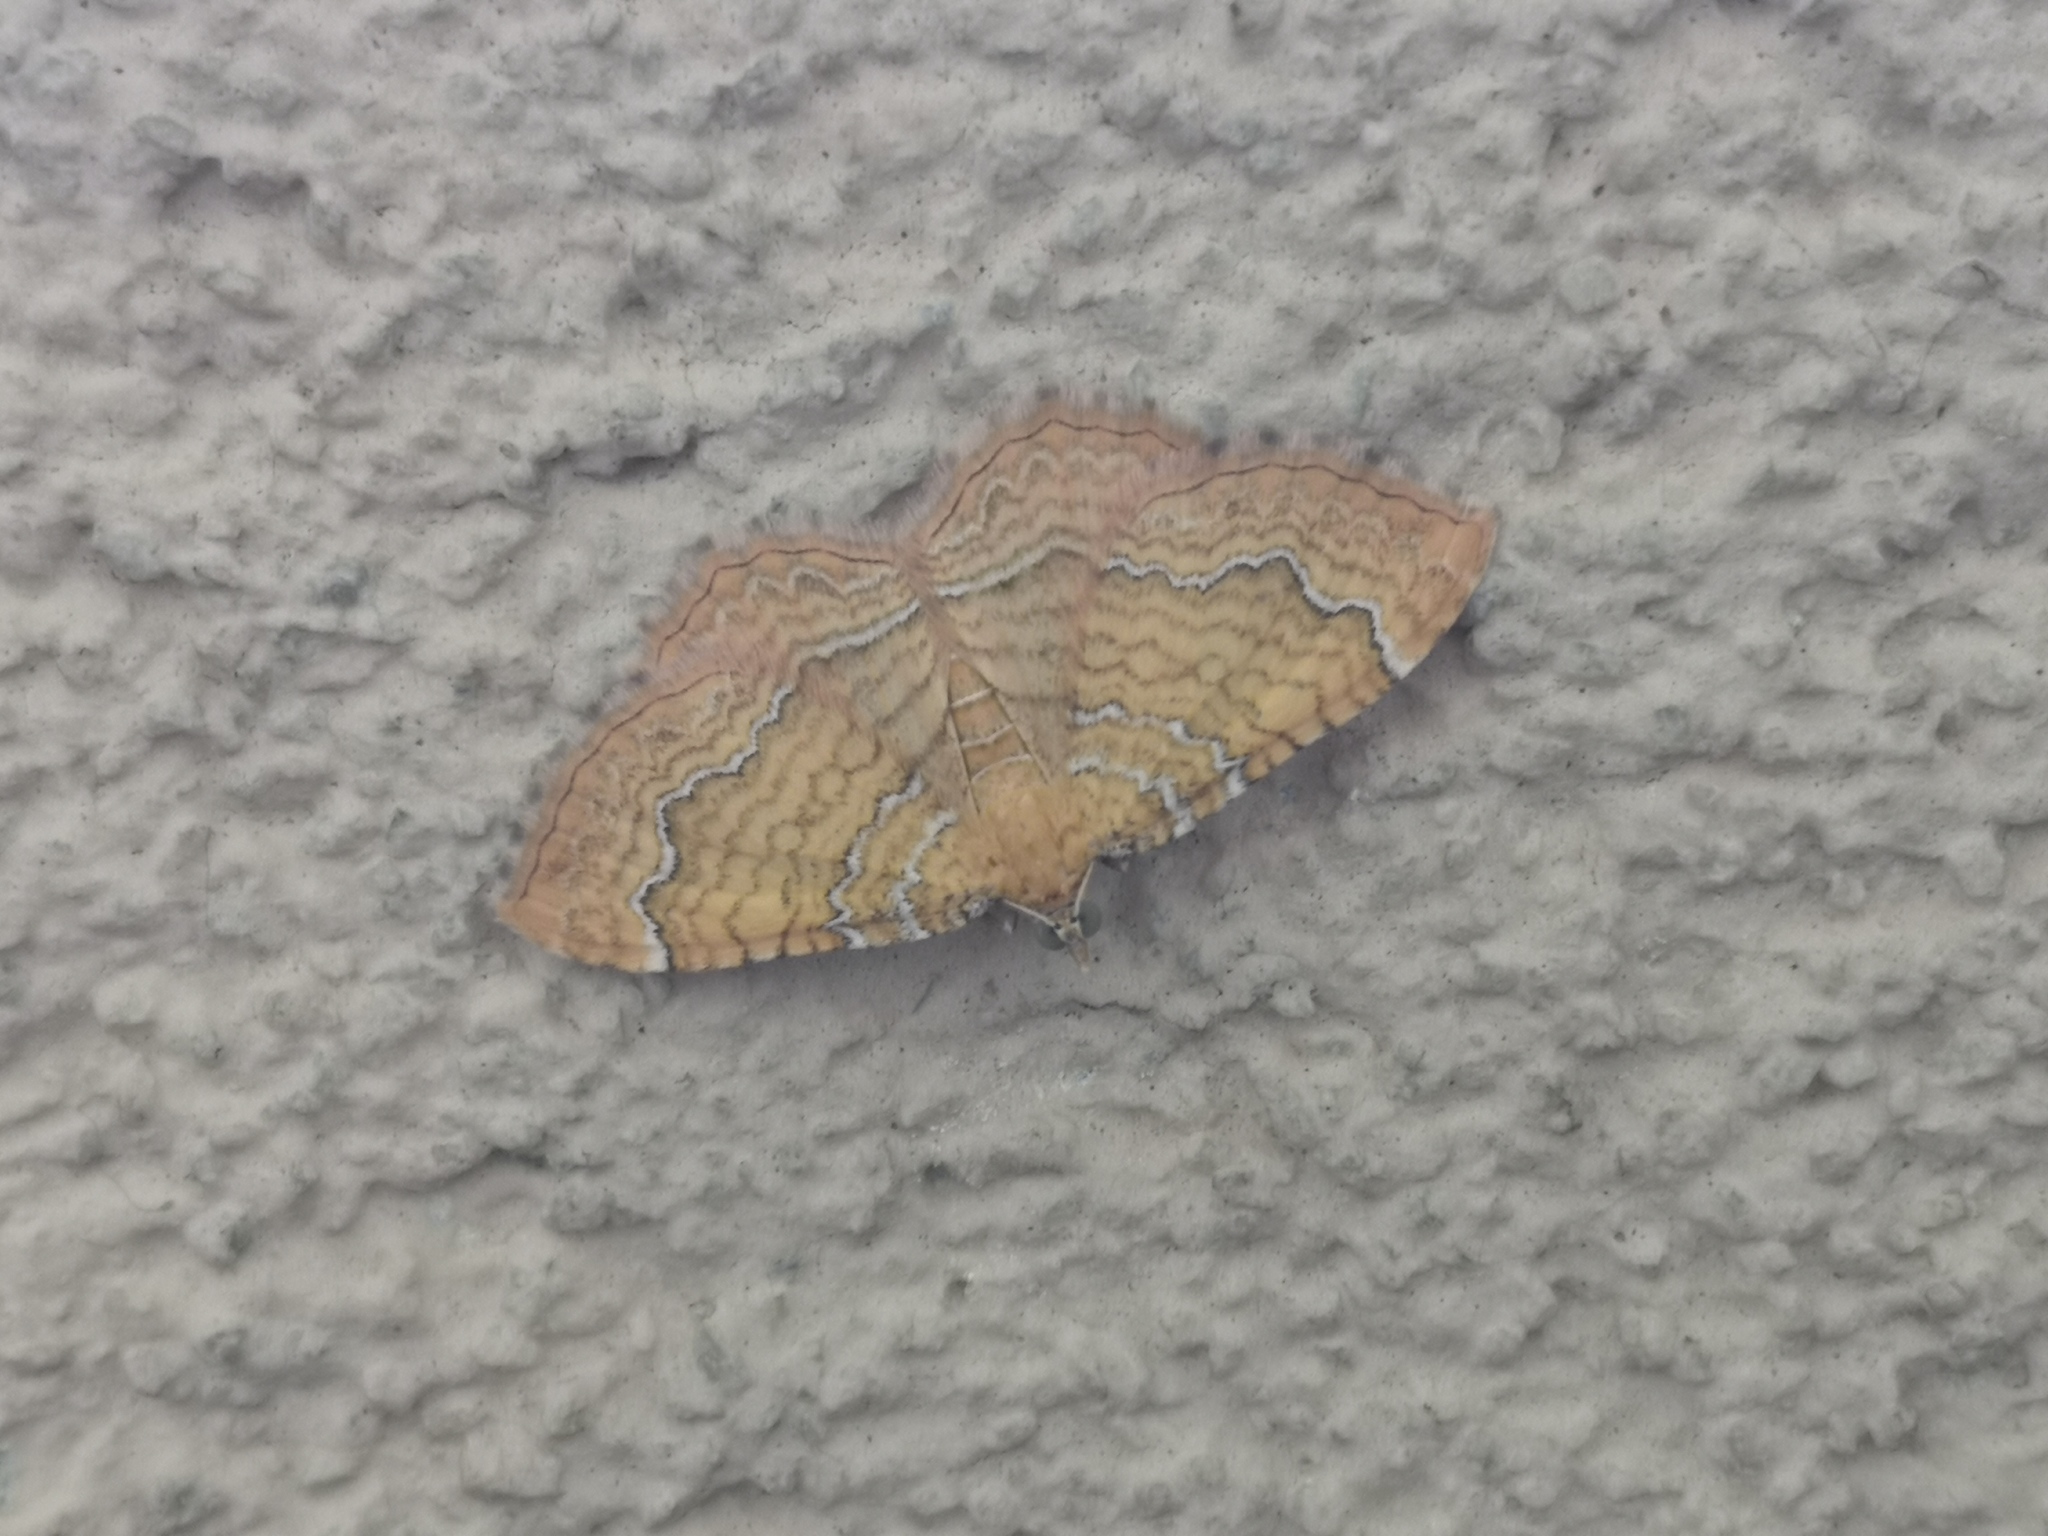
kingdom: Animalia
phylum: Arthropoda
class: Insecta
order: Lepidoptera
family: Geometridae
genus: Camptogramma
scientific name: Camptogramma bilineata
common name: Yellow shell
